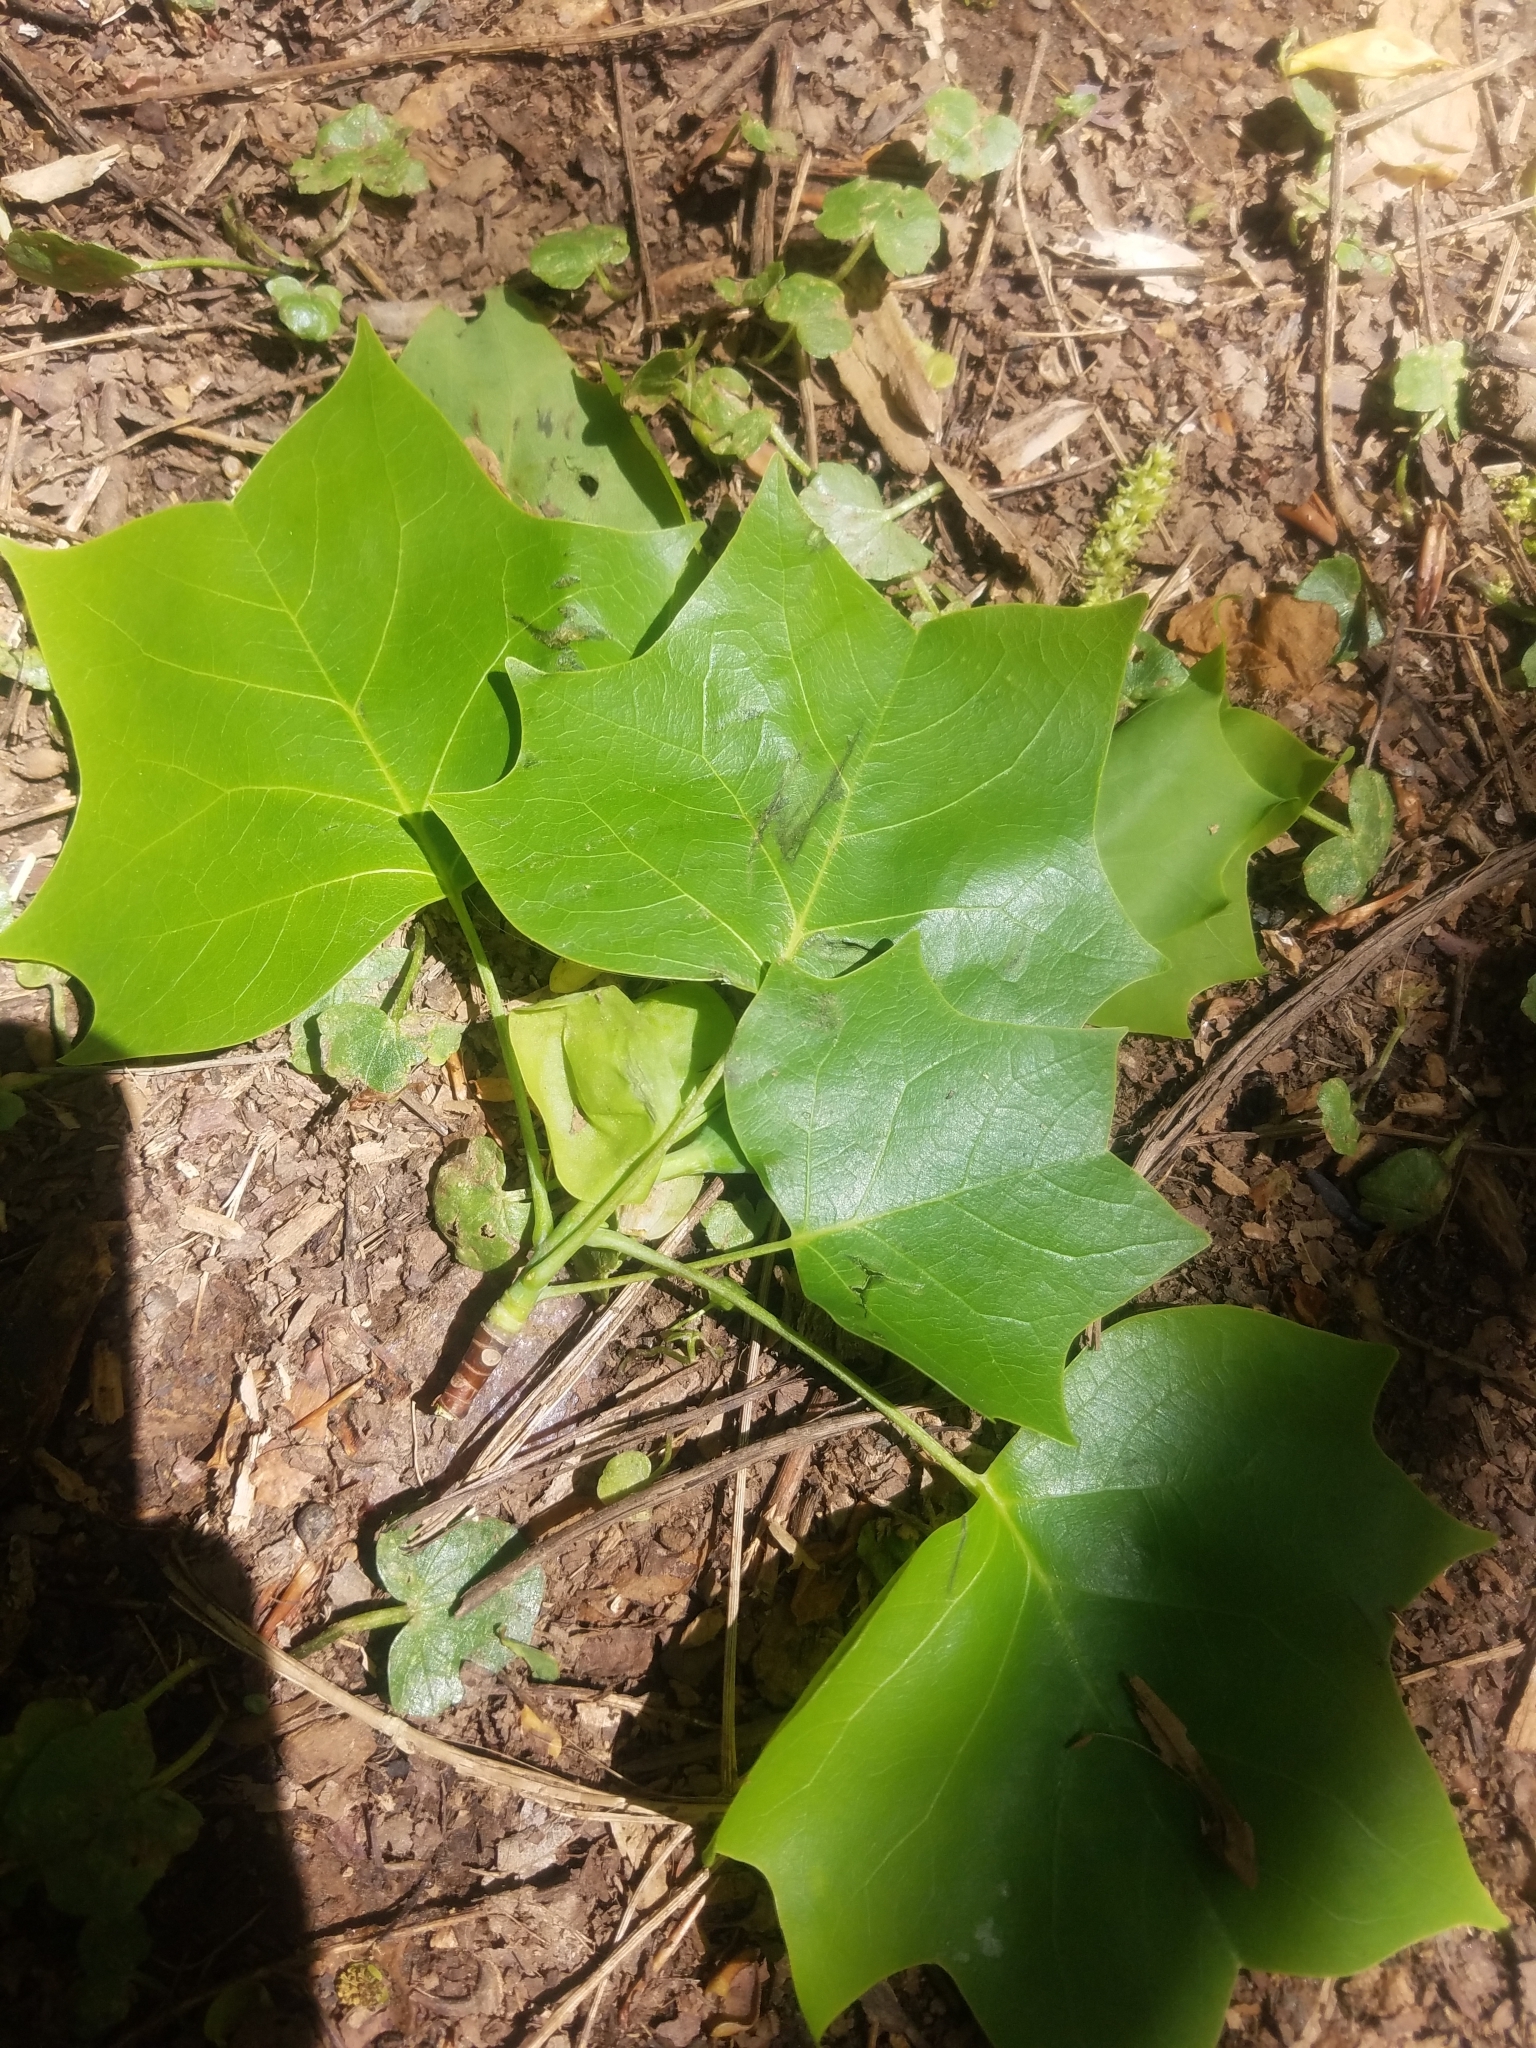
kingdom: Plantae
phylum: Tracheophyta
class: Magnoliopsida
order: Magnoliales
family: Magnoliaceae
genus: Liriodendron
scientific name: Liriodendron tulipifera
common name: Tulip tree
